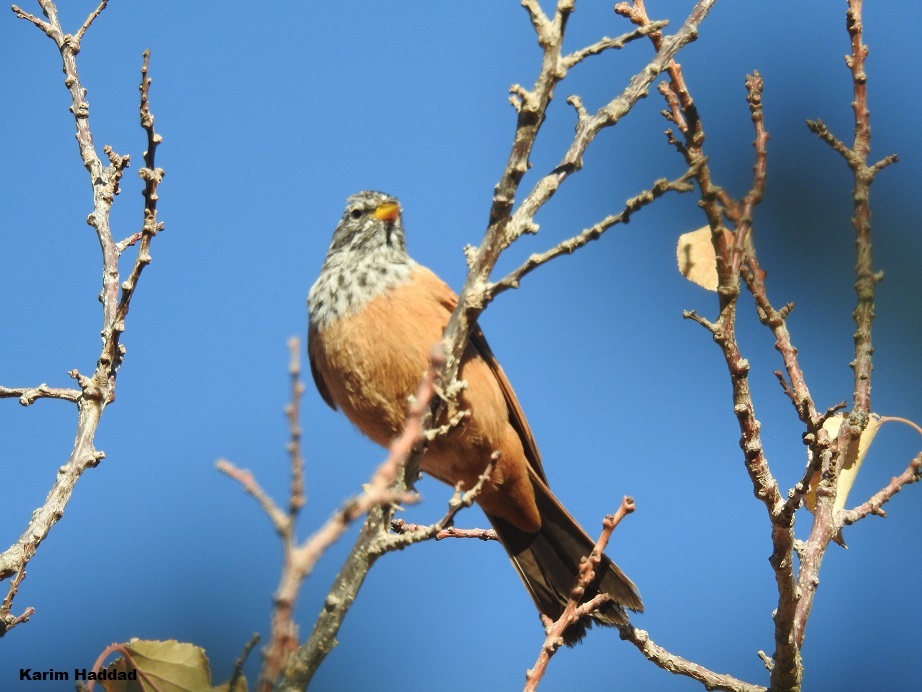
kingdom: Animalia
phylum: Chordata
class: Aves
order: Passeriformes
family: Emberizidae
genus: Emberiza
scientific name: Emberiza sahari
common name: House bunting
